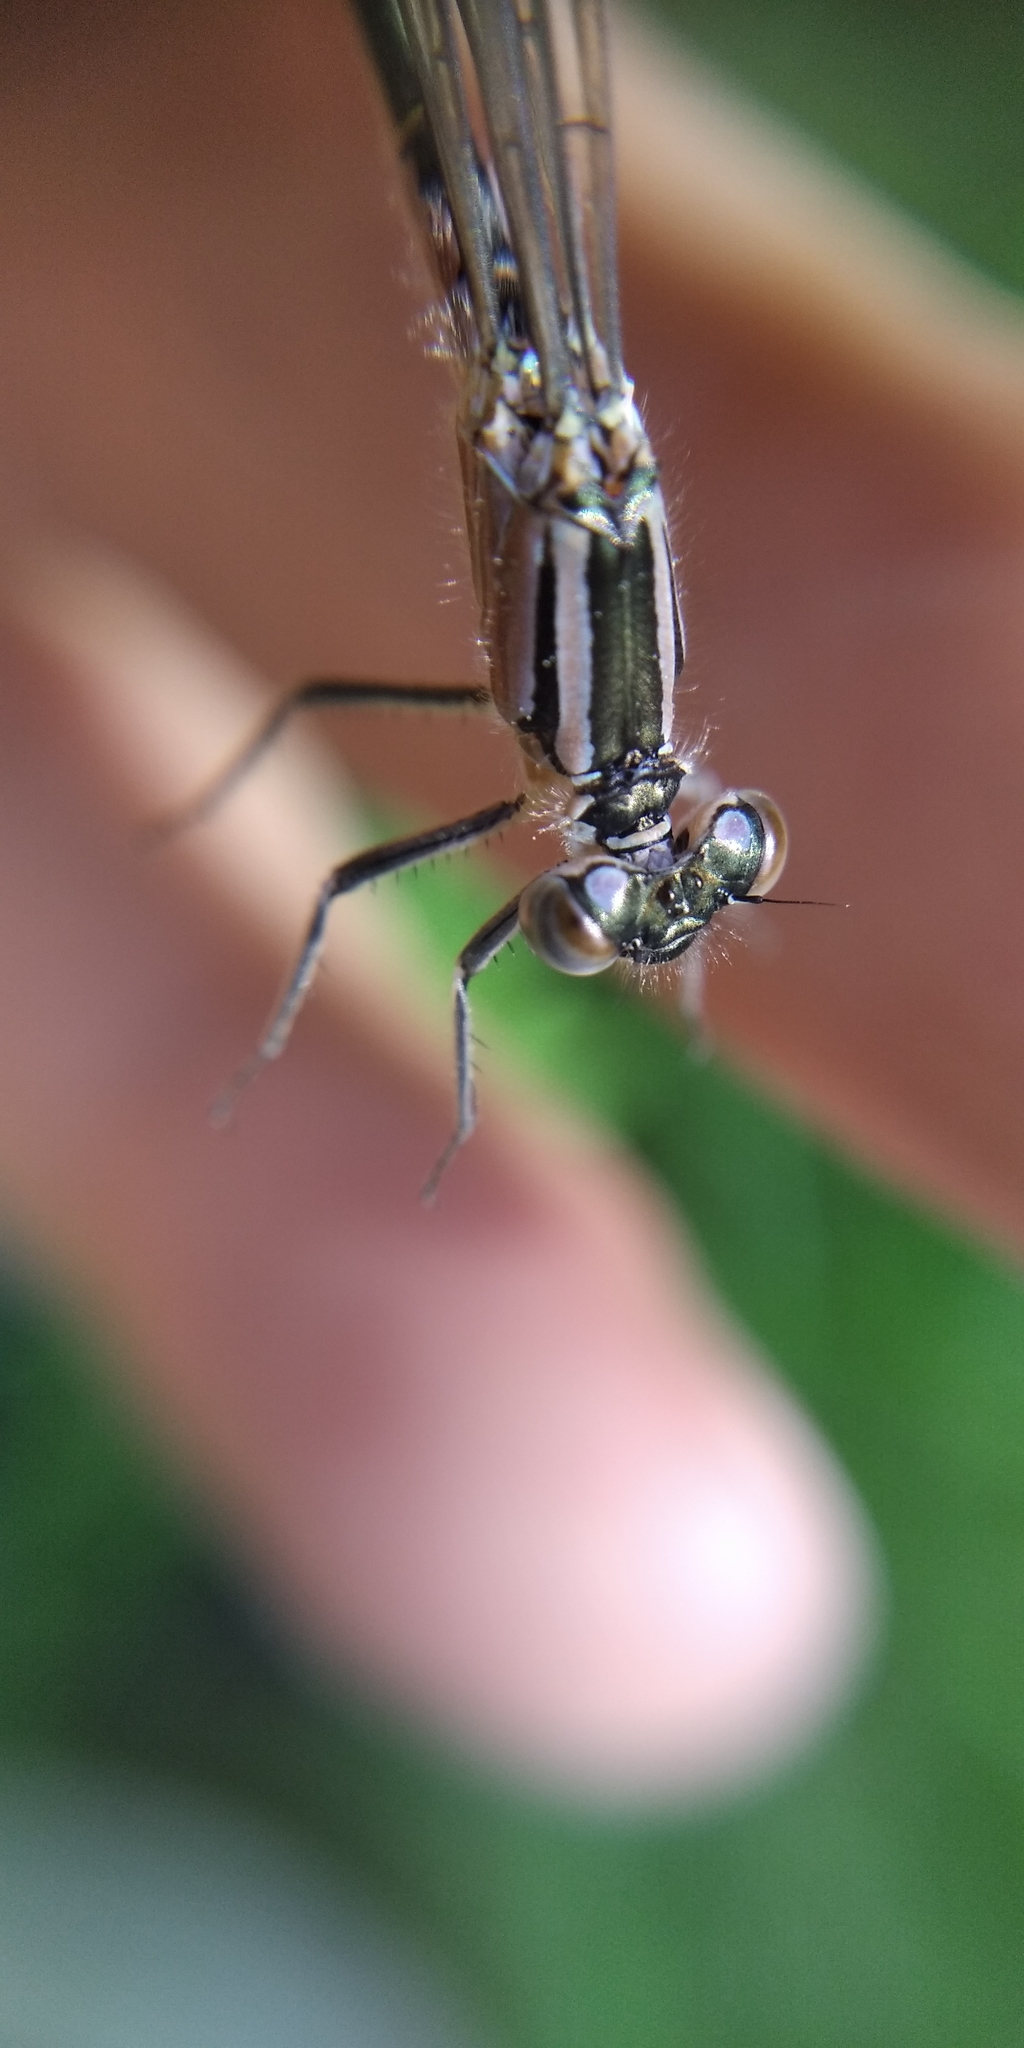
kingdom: Animalia
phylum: Arthropoda
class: Insecta
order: Odonata
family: Coenagrionidae
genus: Ischnura
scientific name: Ischnura elegans
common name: Blue-tailed damselfly
